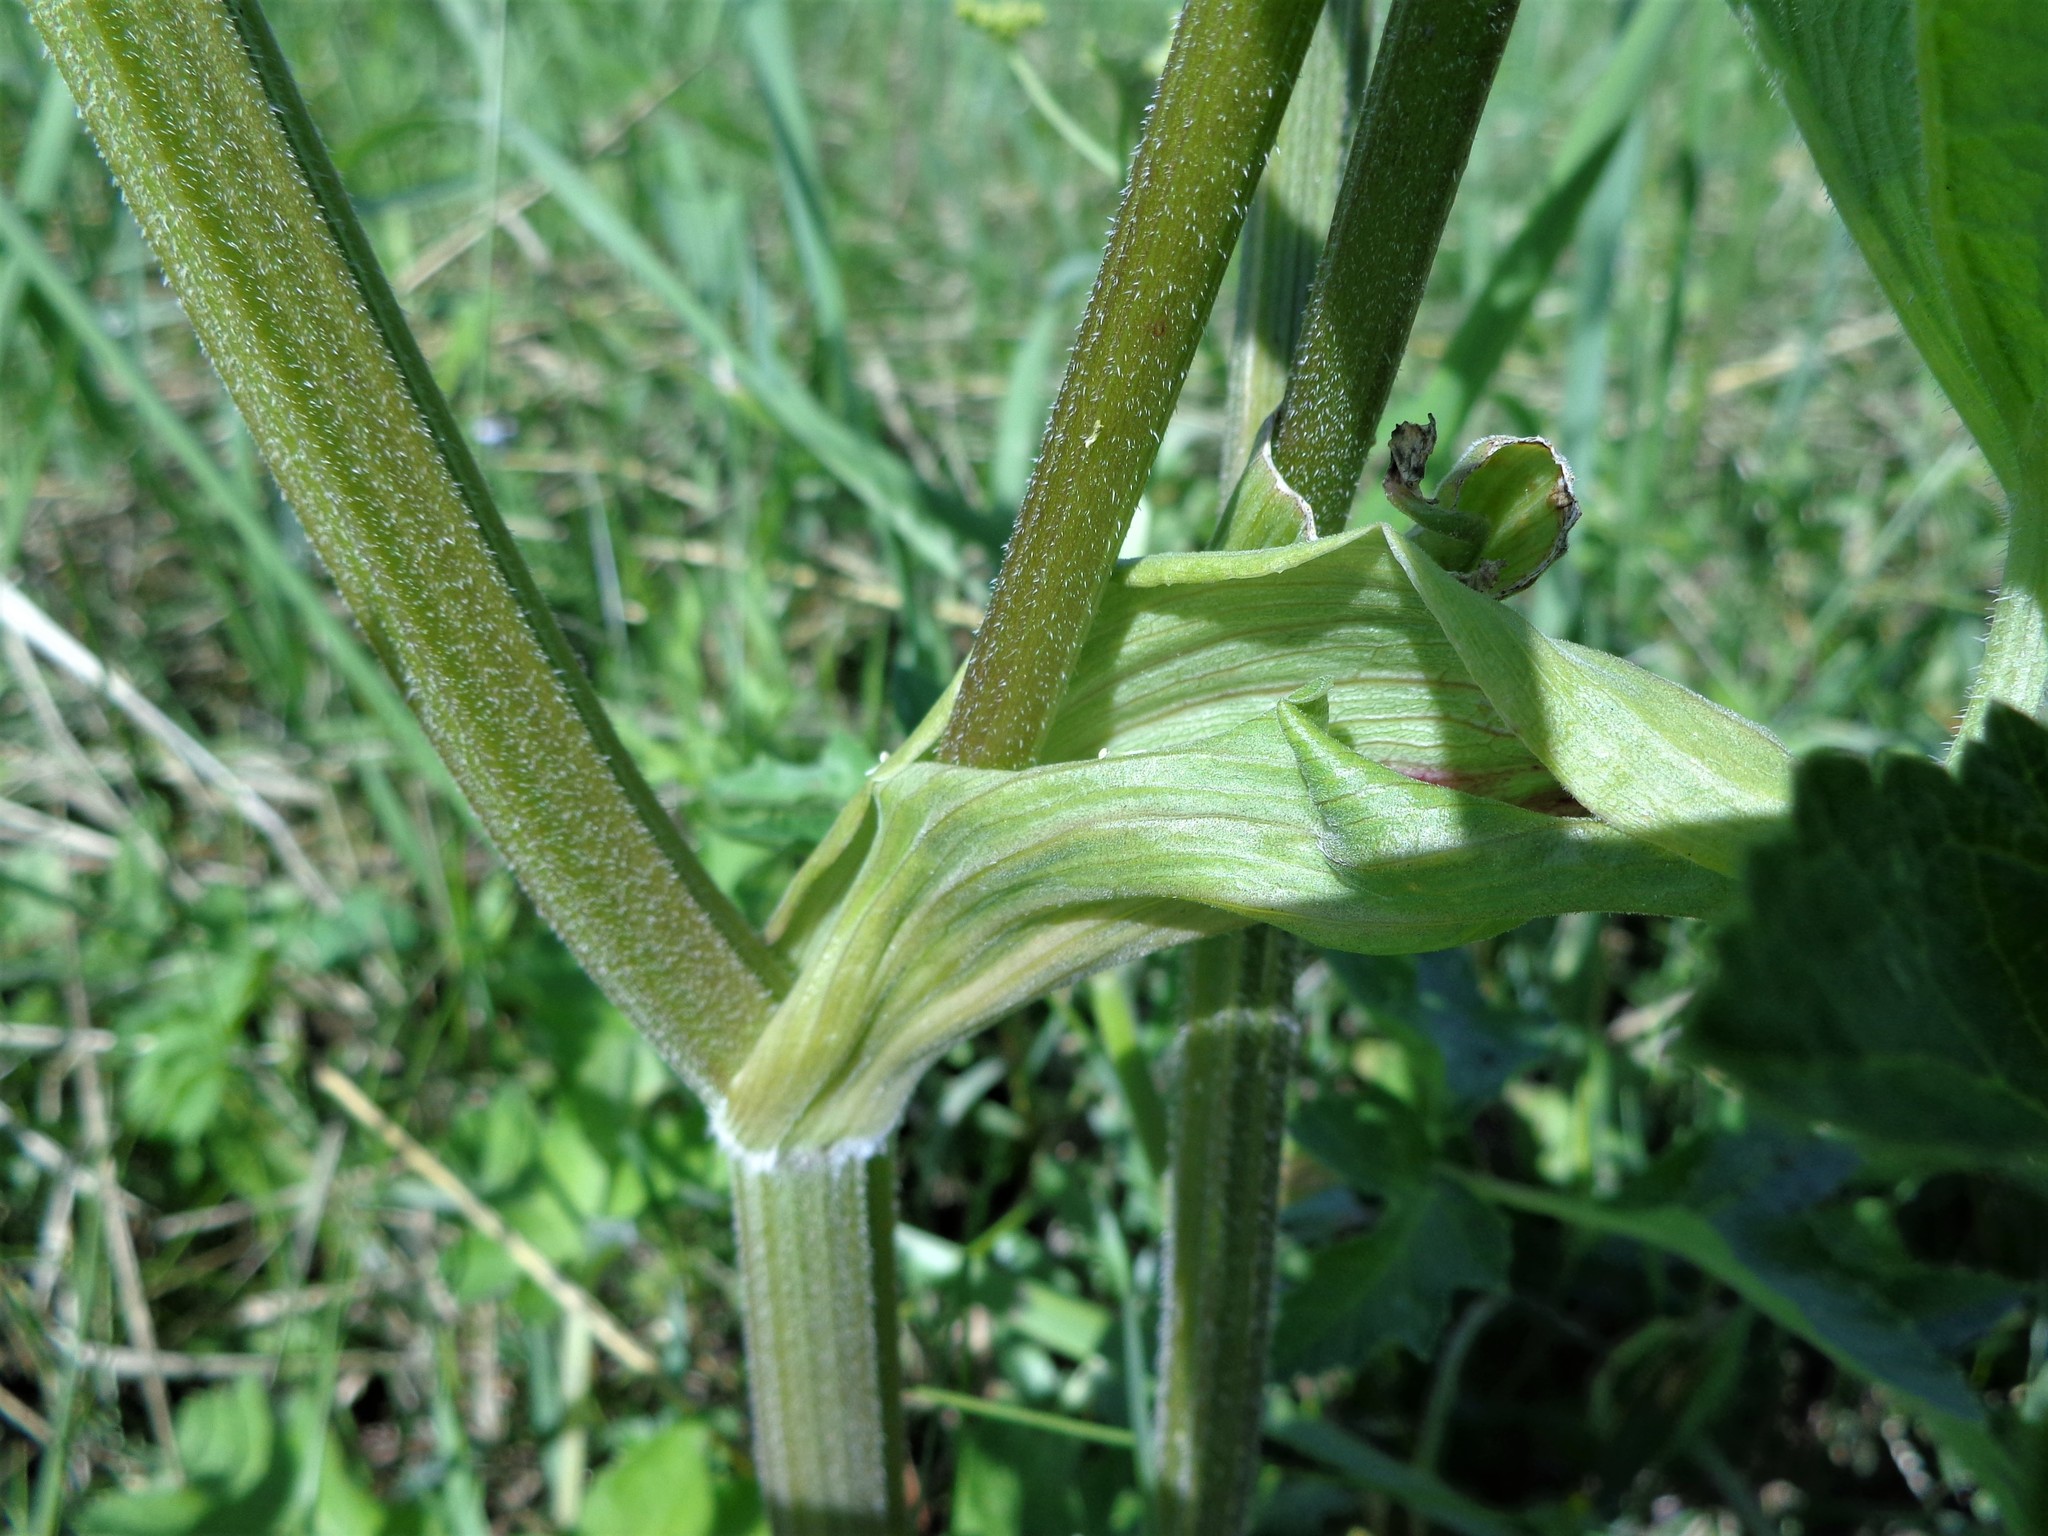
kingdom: Plantae
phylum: Tracheophyta
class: Magnoliopsida
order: Apiales
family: Apiaceae
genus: Heracleum
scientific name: Heracleum sphondylium
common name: Hogweed
